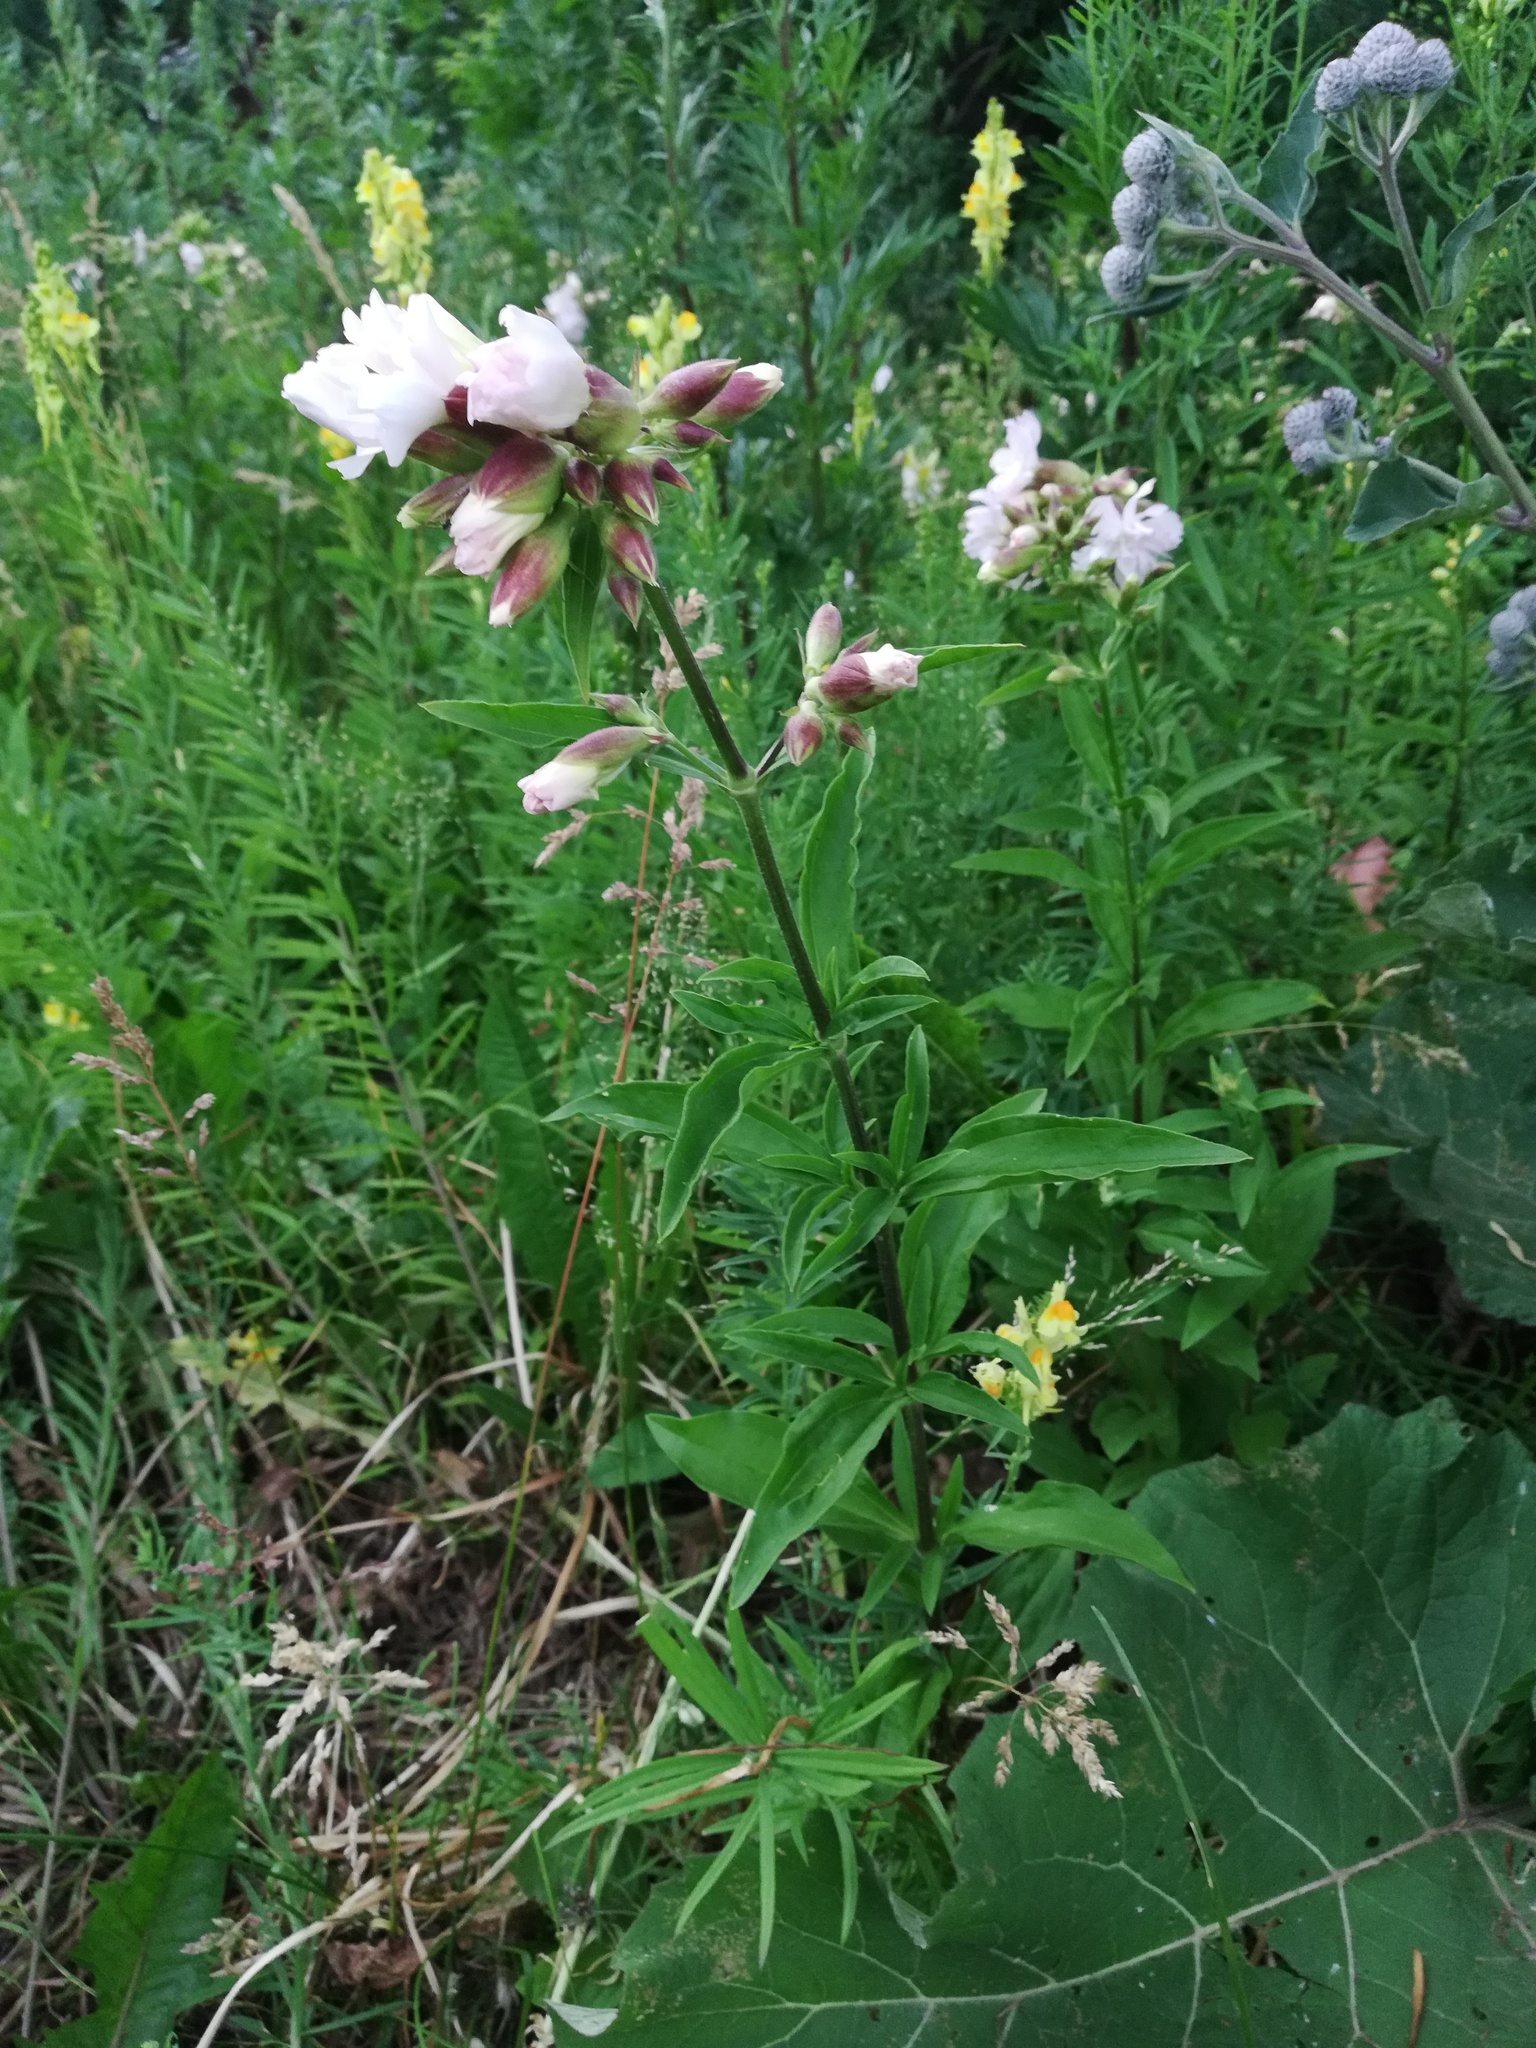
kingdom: Plantae
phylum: Tracheophyta
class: Magnoliopsida
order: Caryophyllales
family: Caryophyllaceae
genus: Saponaria
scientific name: Saponaria officinalis
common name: Soapwort
